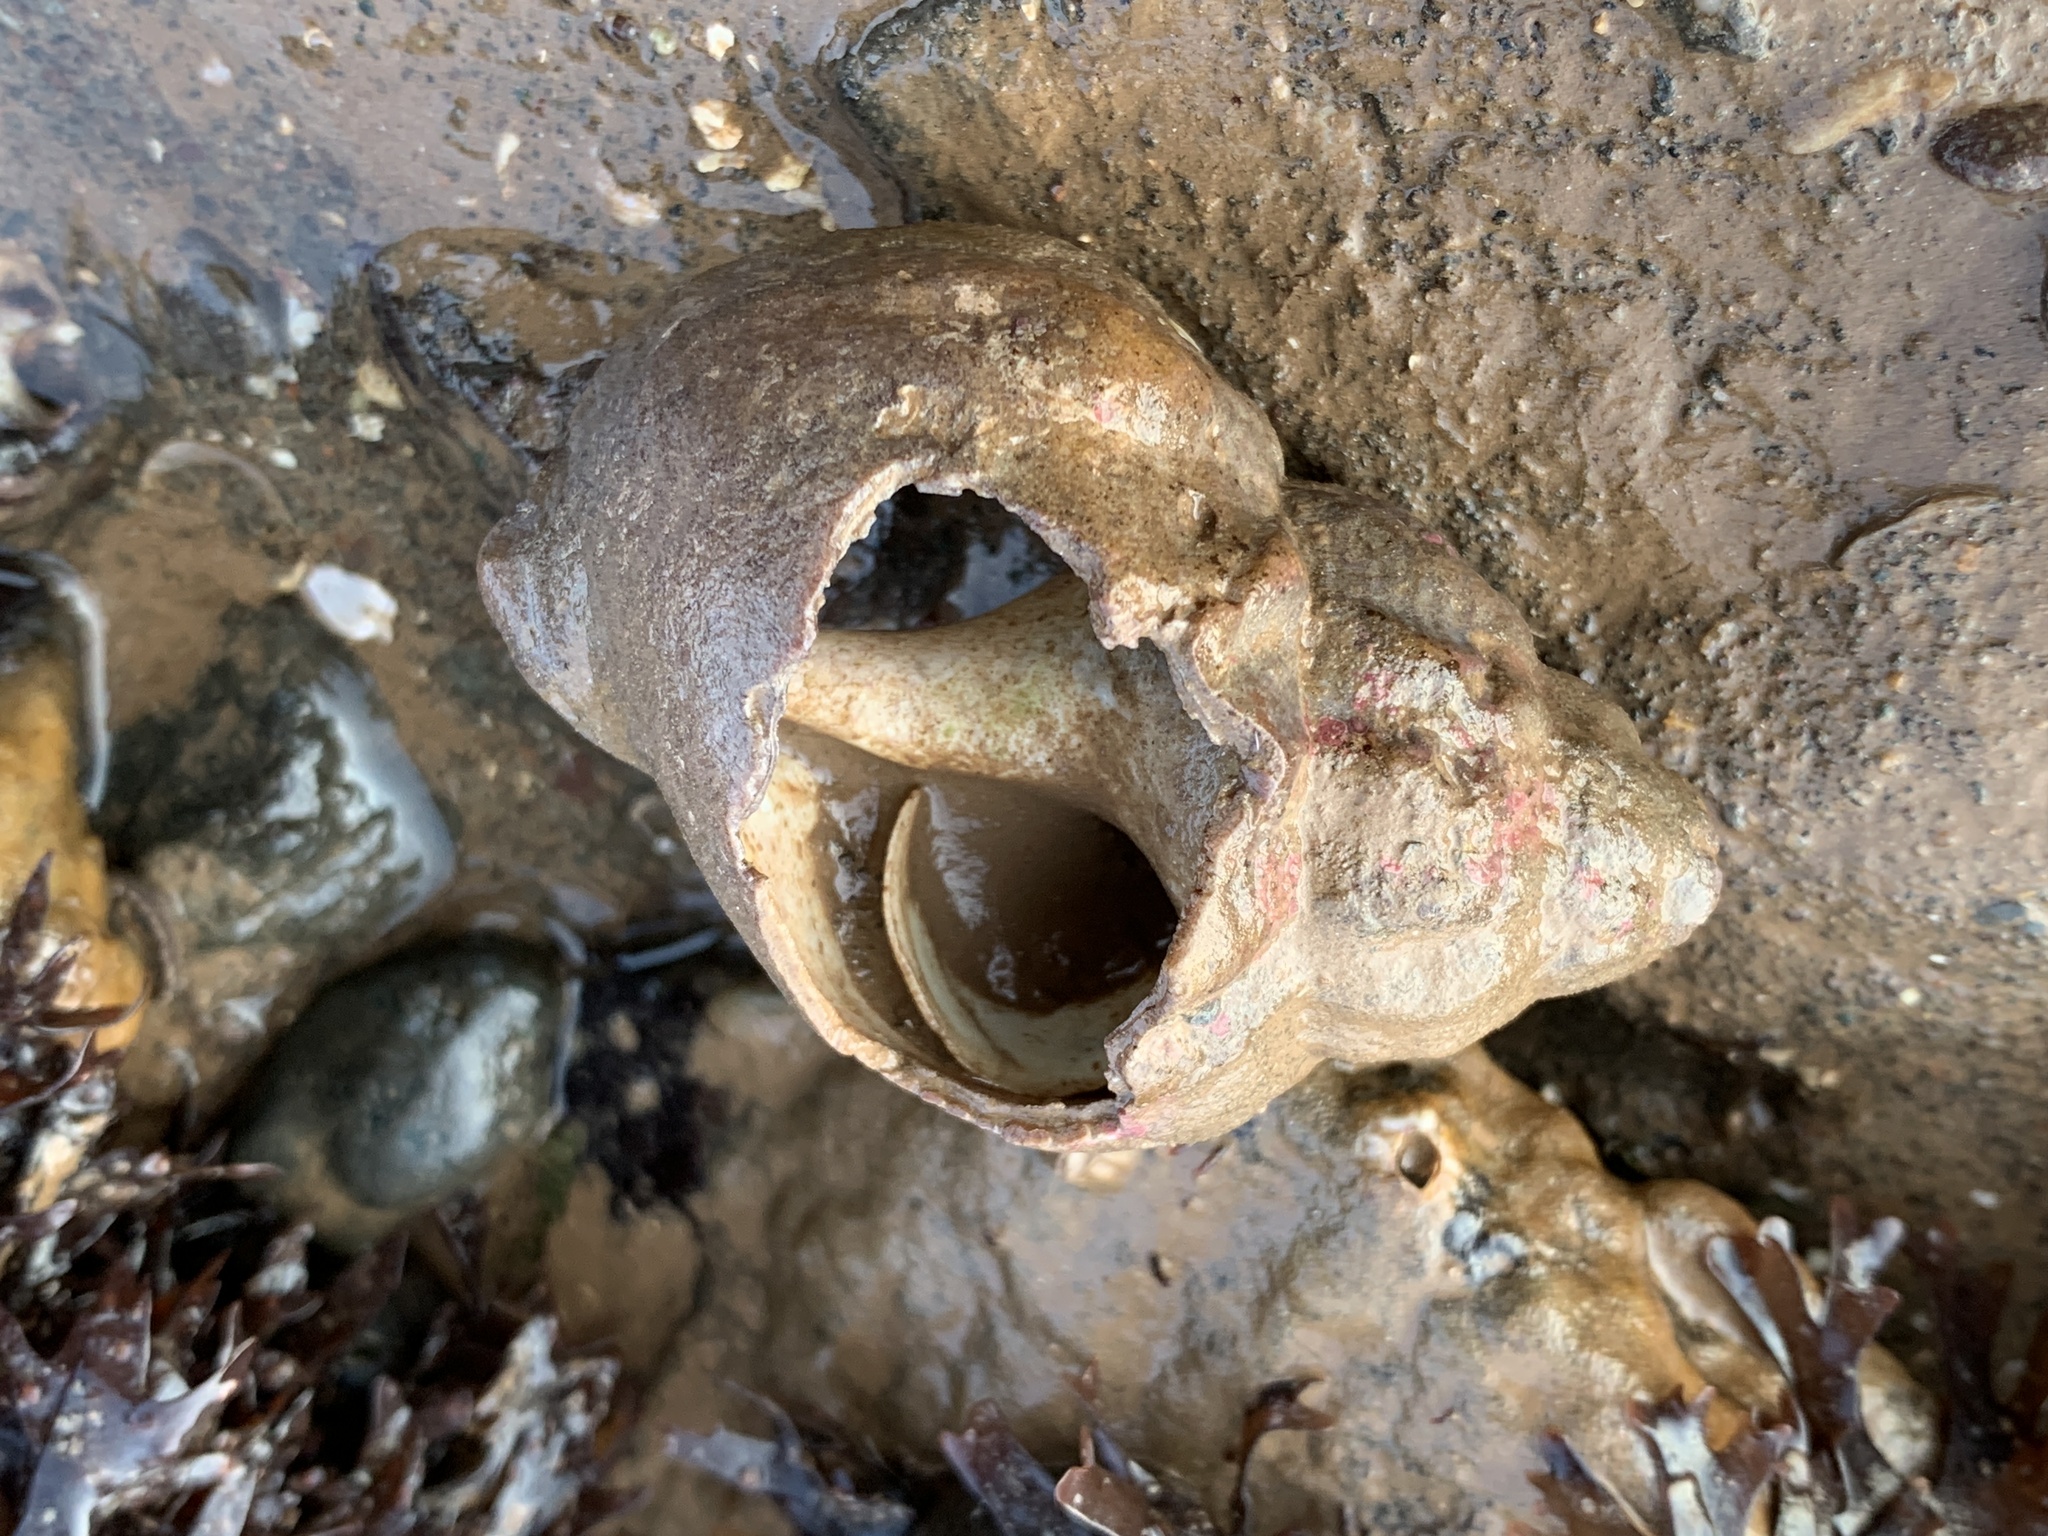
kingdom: Animalia
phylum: Mollusca
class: Gastropoda
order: Neogastropoda
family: Buccinidae
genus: Buccinum
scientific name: Buccinum undatum
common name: Common whelk
